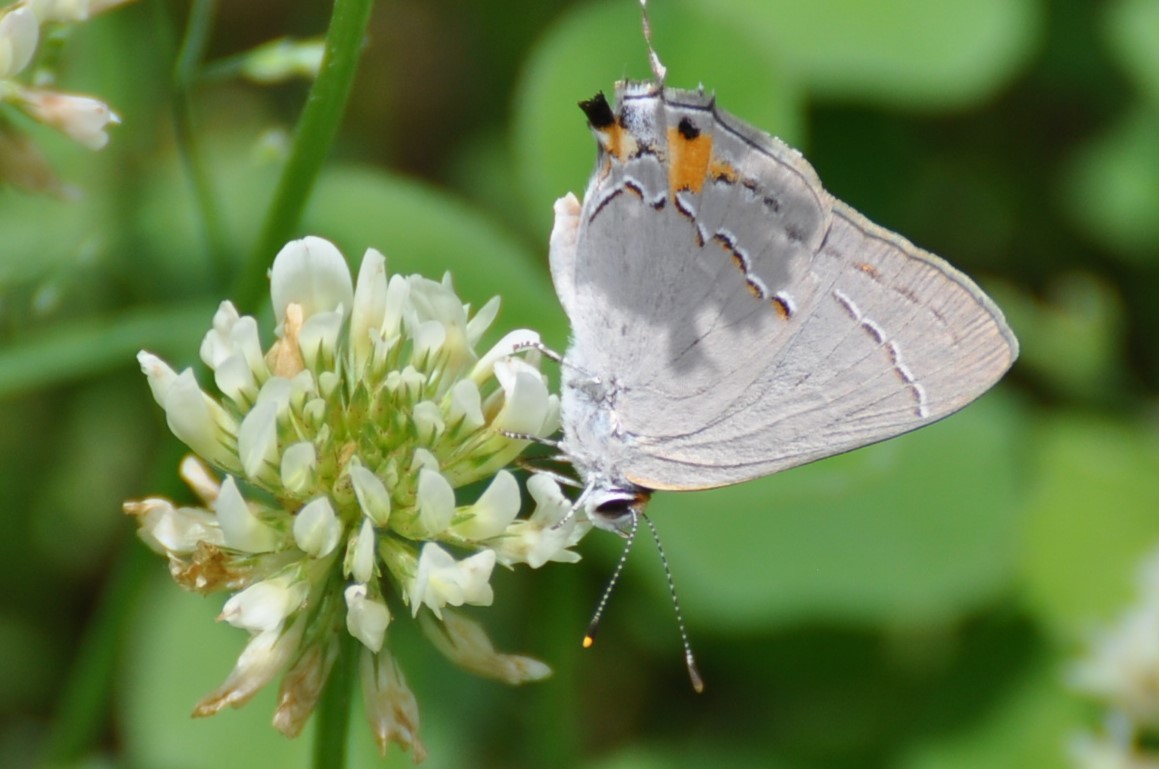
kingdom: Animalia
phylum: Arthropoda
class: Insecta
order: Lepidoptera
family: Lycaenidae
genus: Strymon
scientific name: Strymon melinus
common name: Gray hairstreak
